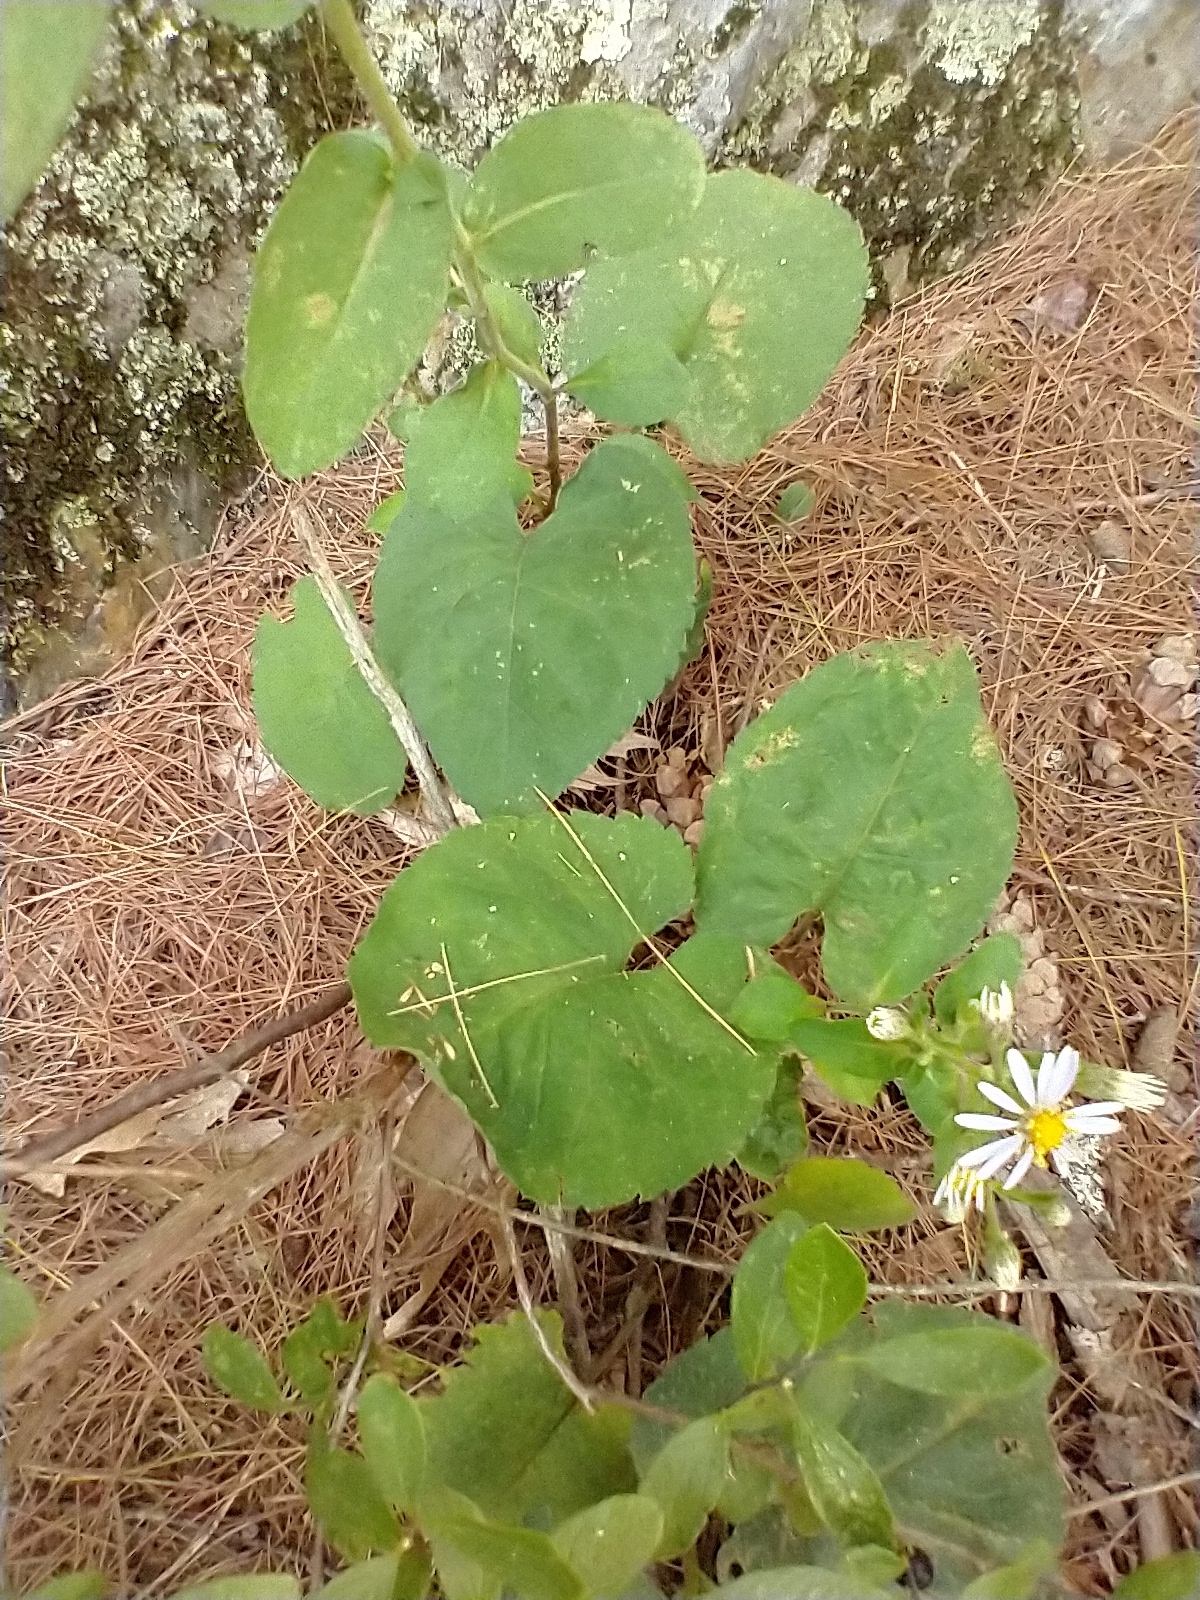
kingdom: Plantae
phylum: Tracheophyta
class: Magnoliopsida
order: Asterales
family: Asteraceae
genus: Eurybia
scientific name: Eurybia macrophylla
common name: Big-leaved aster
